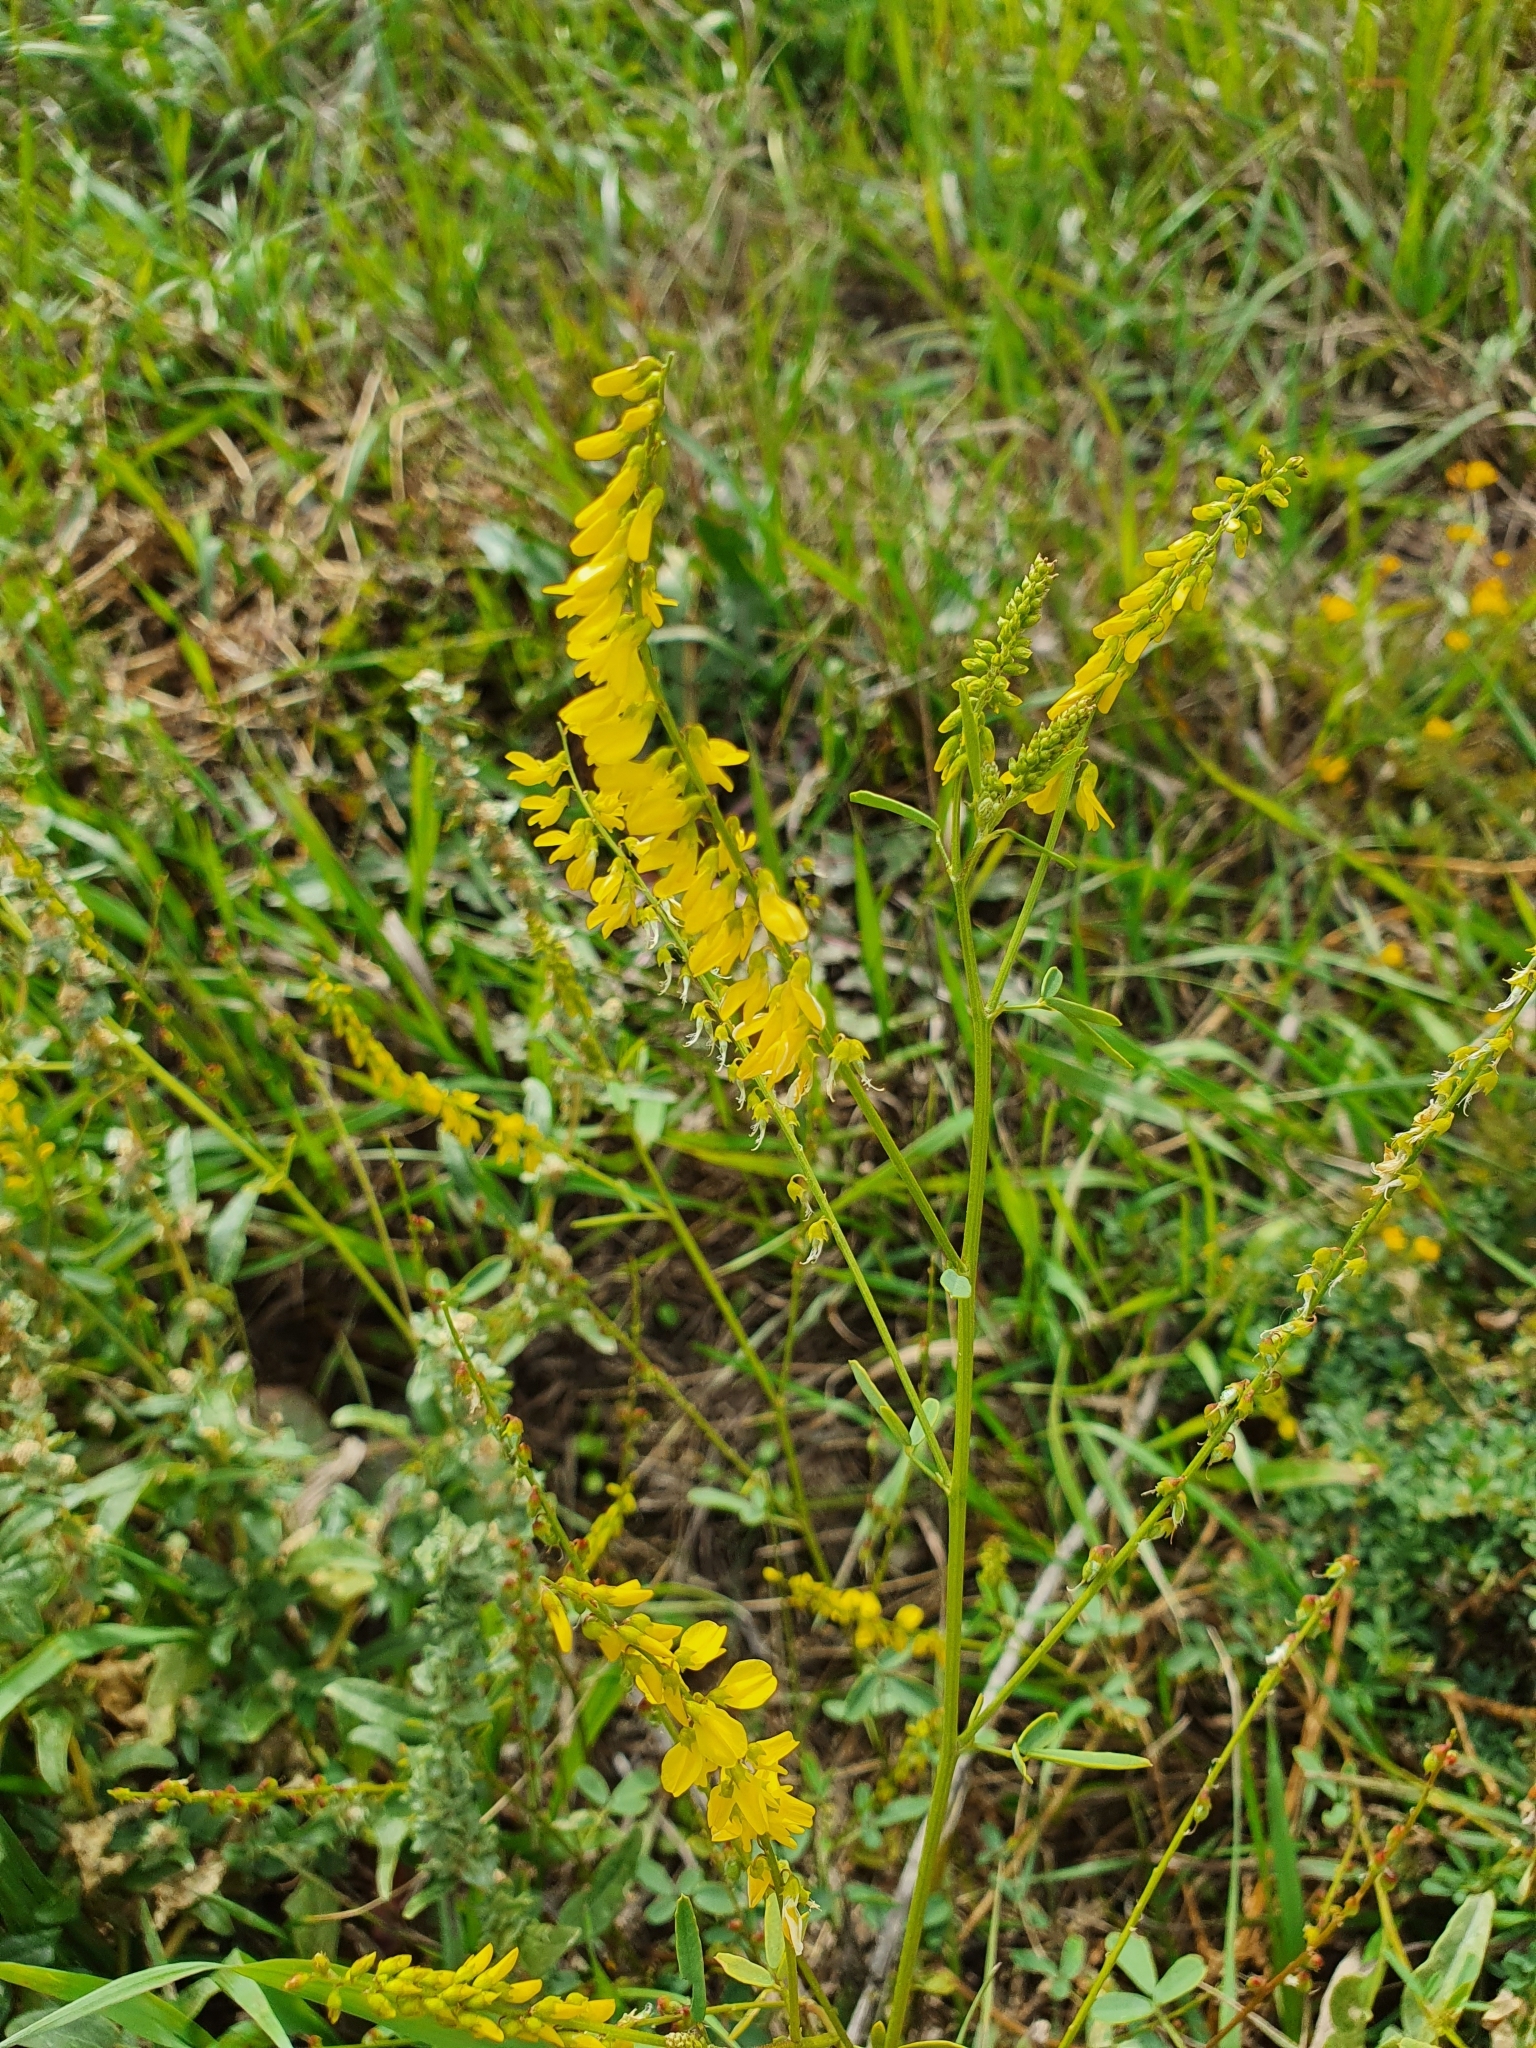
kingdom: Plantae
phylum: Tracheophyta
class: Magnoliopsida
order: Fabales
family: Fabaceae
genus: Melilotus
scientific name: Melilotus officinalis
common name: Sweetclover
